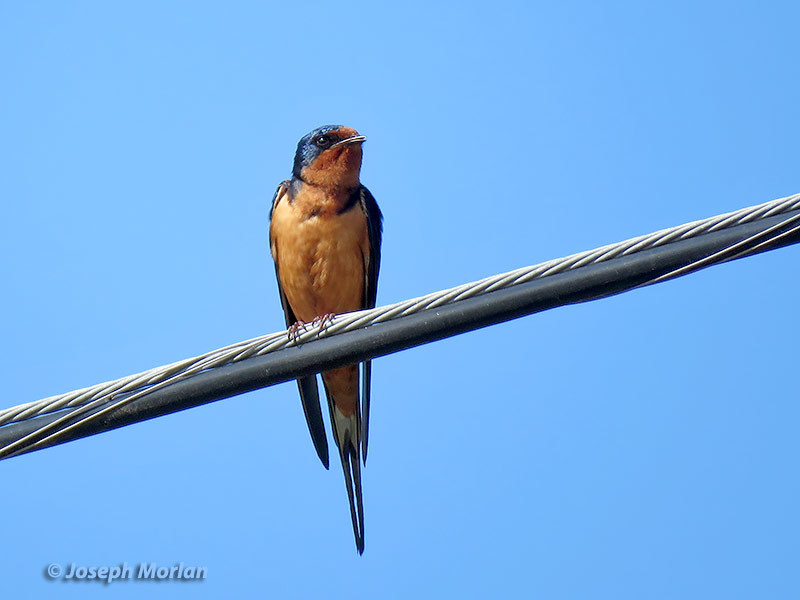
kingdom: Animalia
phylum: Chordata
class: Aves
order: Passeriformes
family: Hirundinidae
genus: Hirundo
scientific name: Hirundo rustica
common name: Barn swallow
